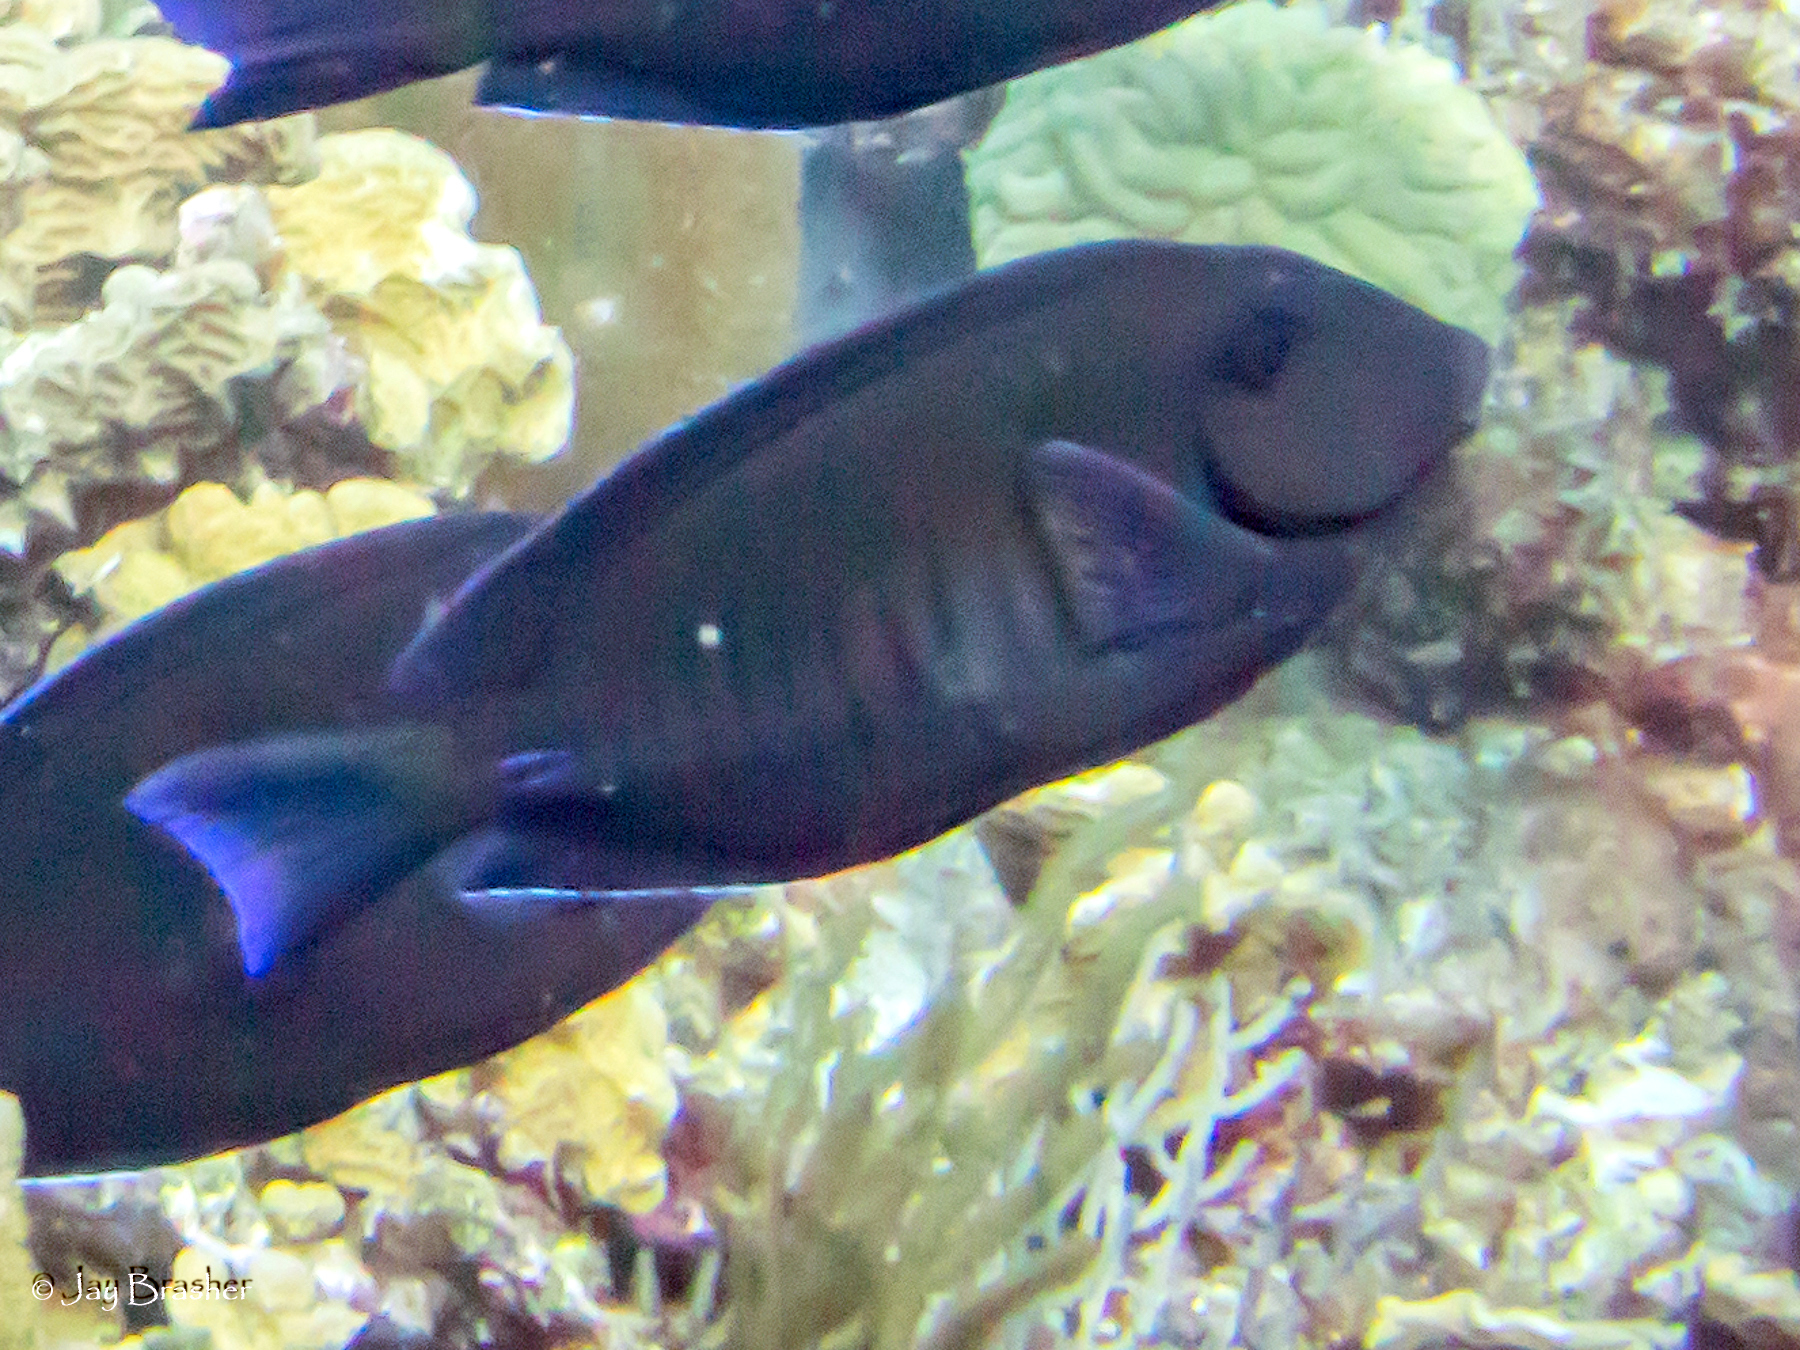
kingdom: Animalia
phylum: Chordata
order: Perciformes
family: Acanthuridae
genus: Acanthurus
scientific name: Acanthurus chirurgus
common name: Doctorfish
